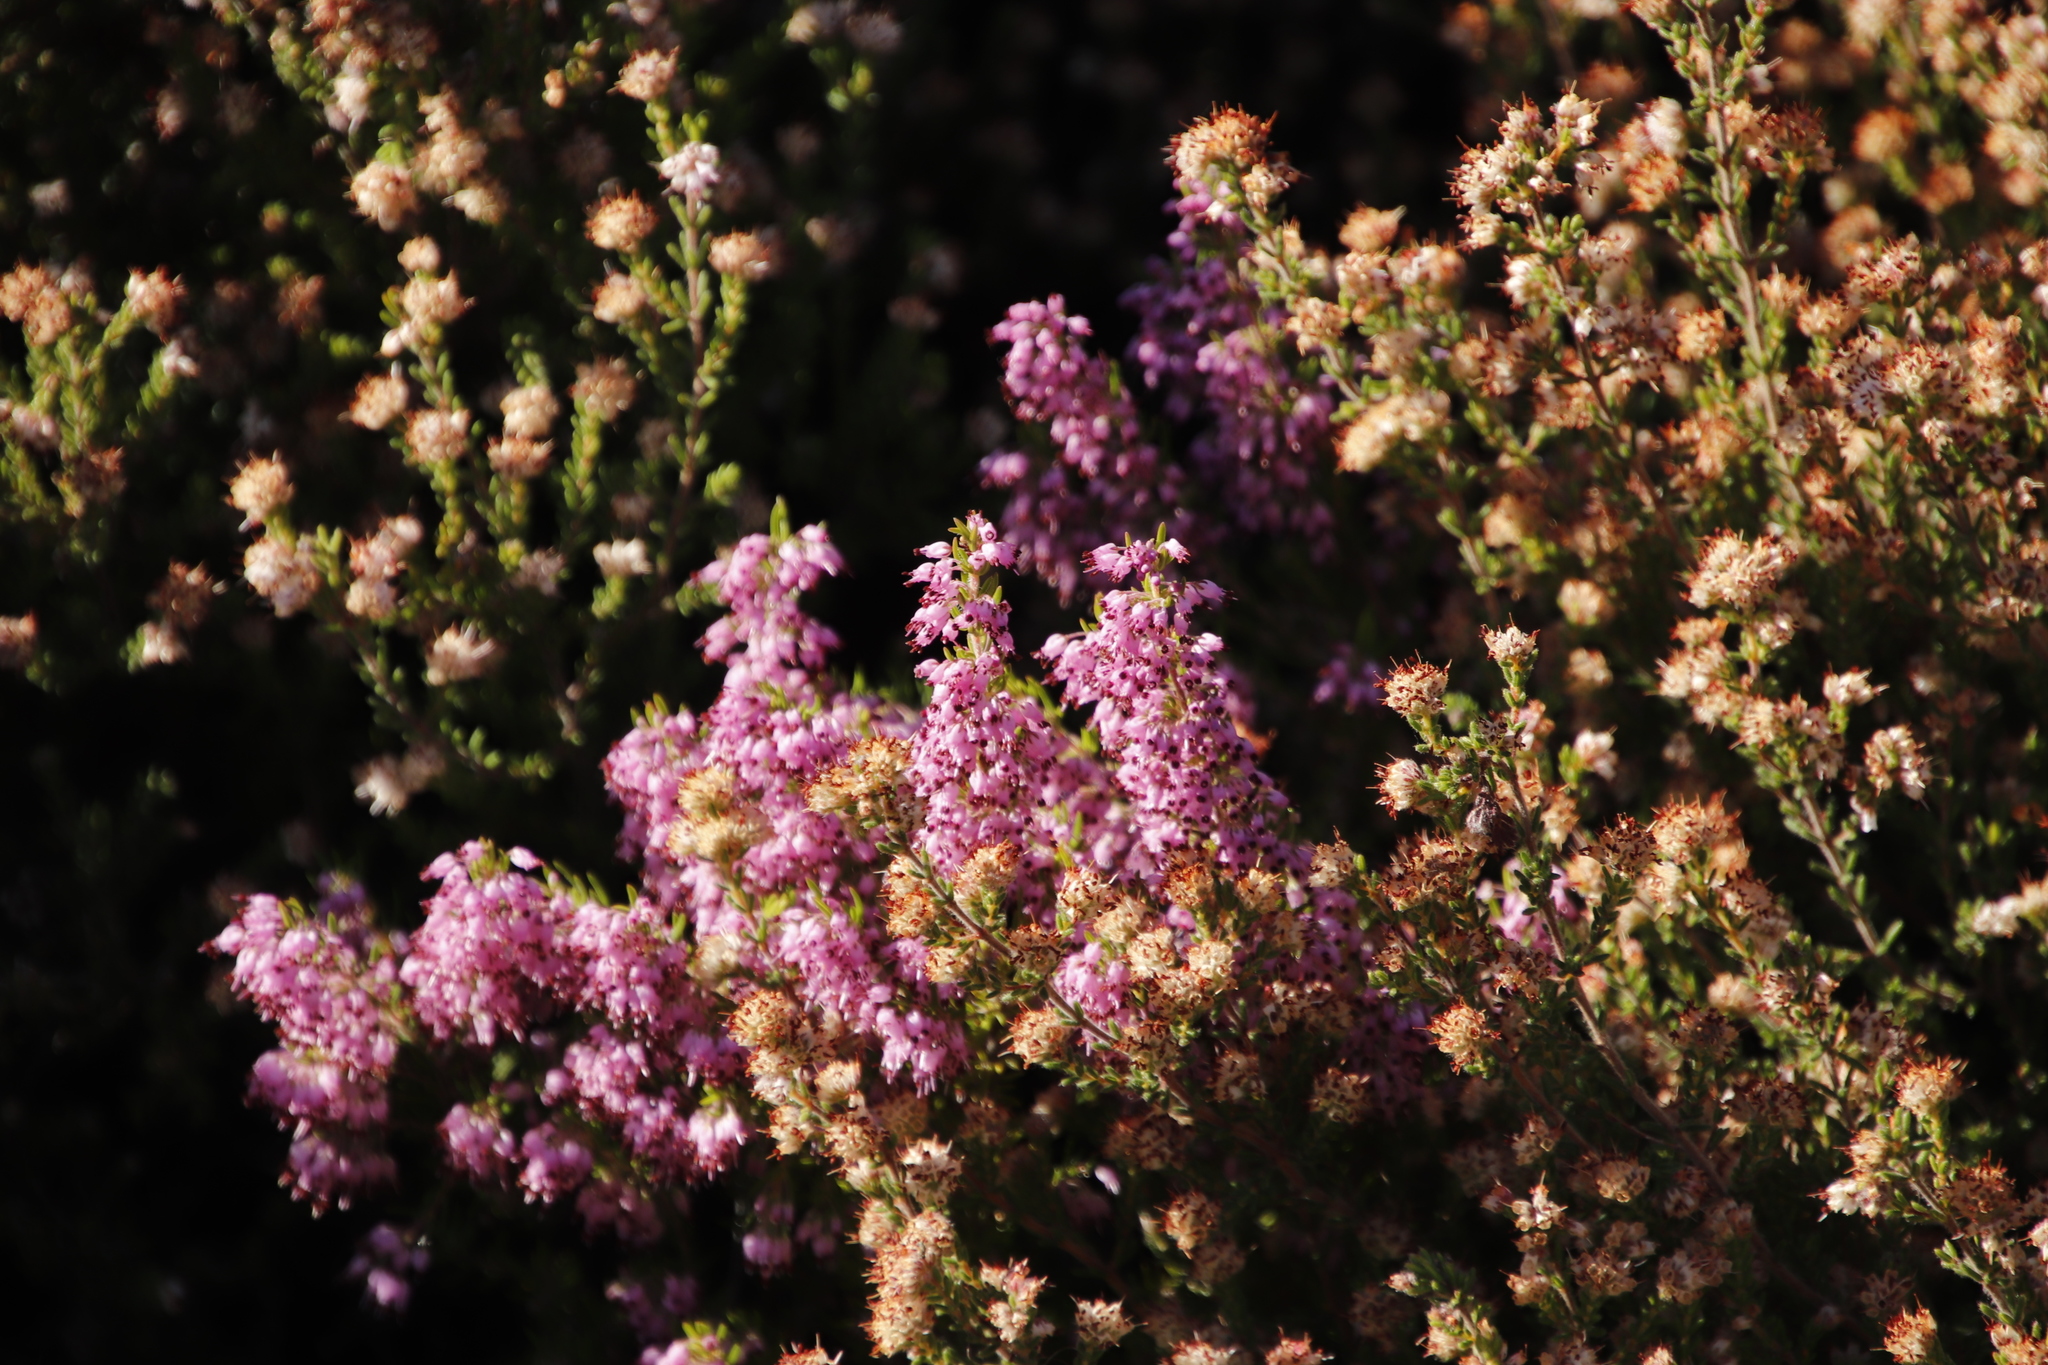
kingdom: Plantae
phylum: Tracheophyta
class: Magnoliopsida
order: Ericales
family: Ericaceae
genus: Erica
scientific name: Erica nudiflora
